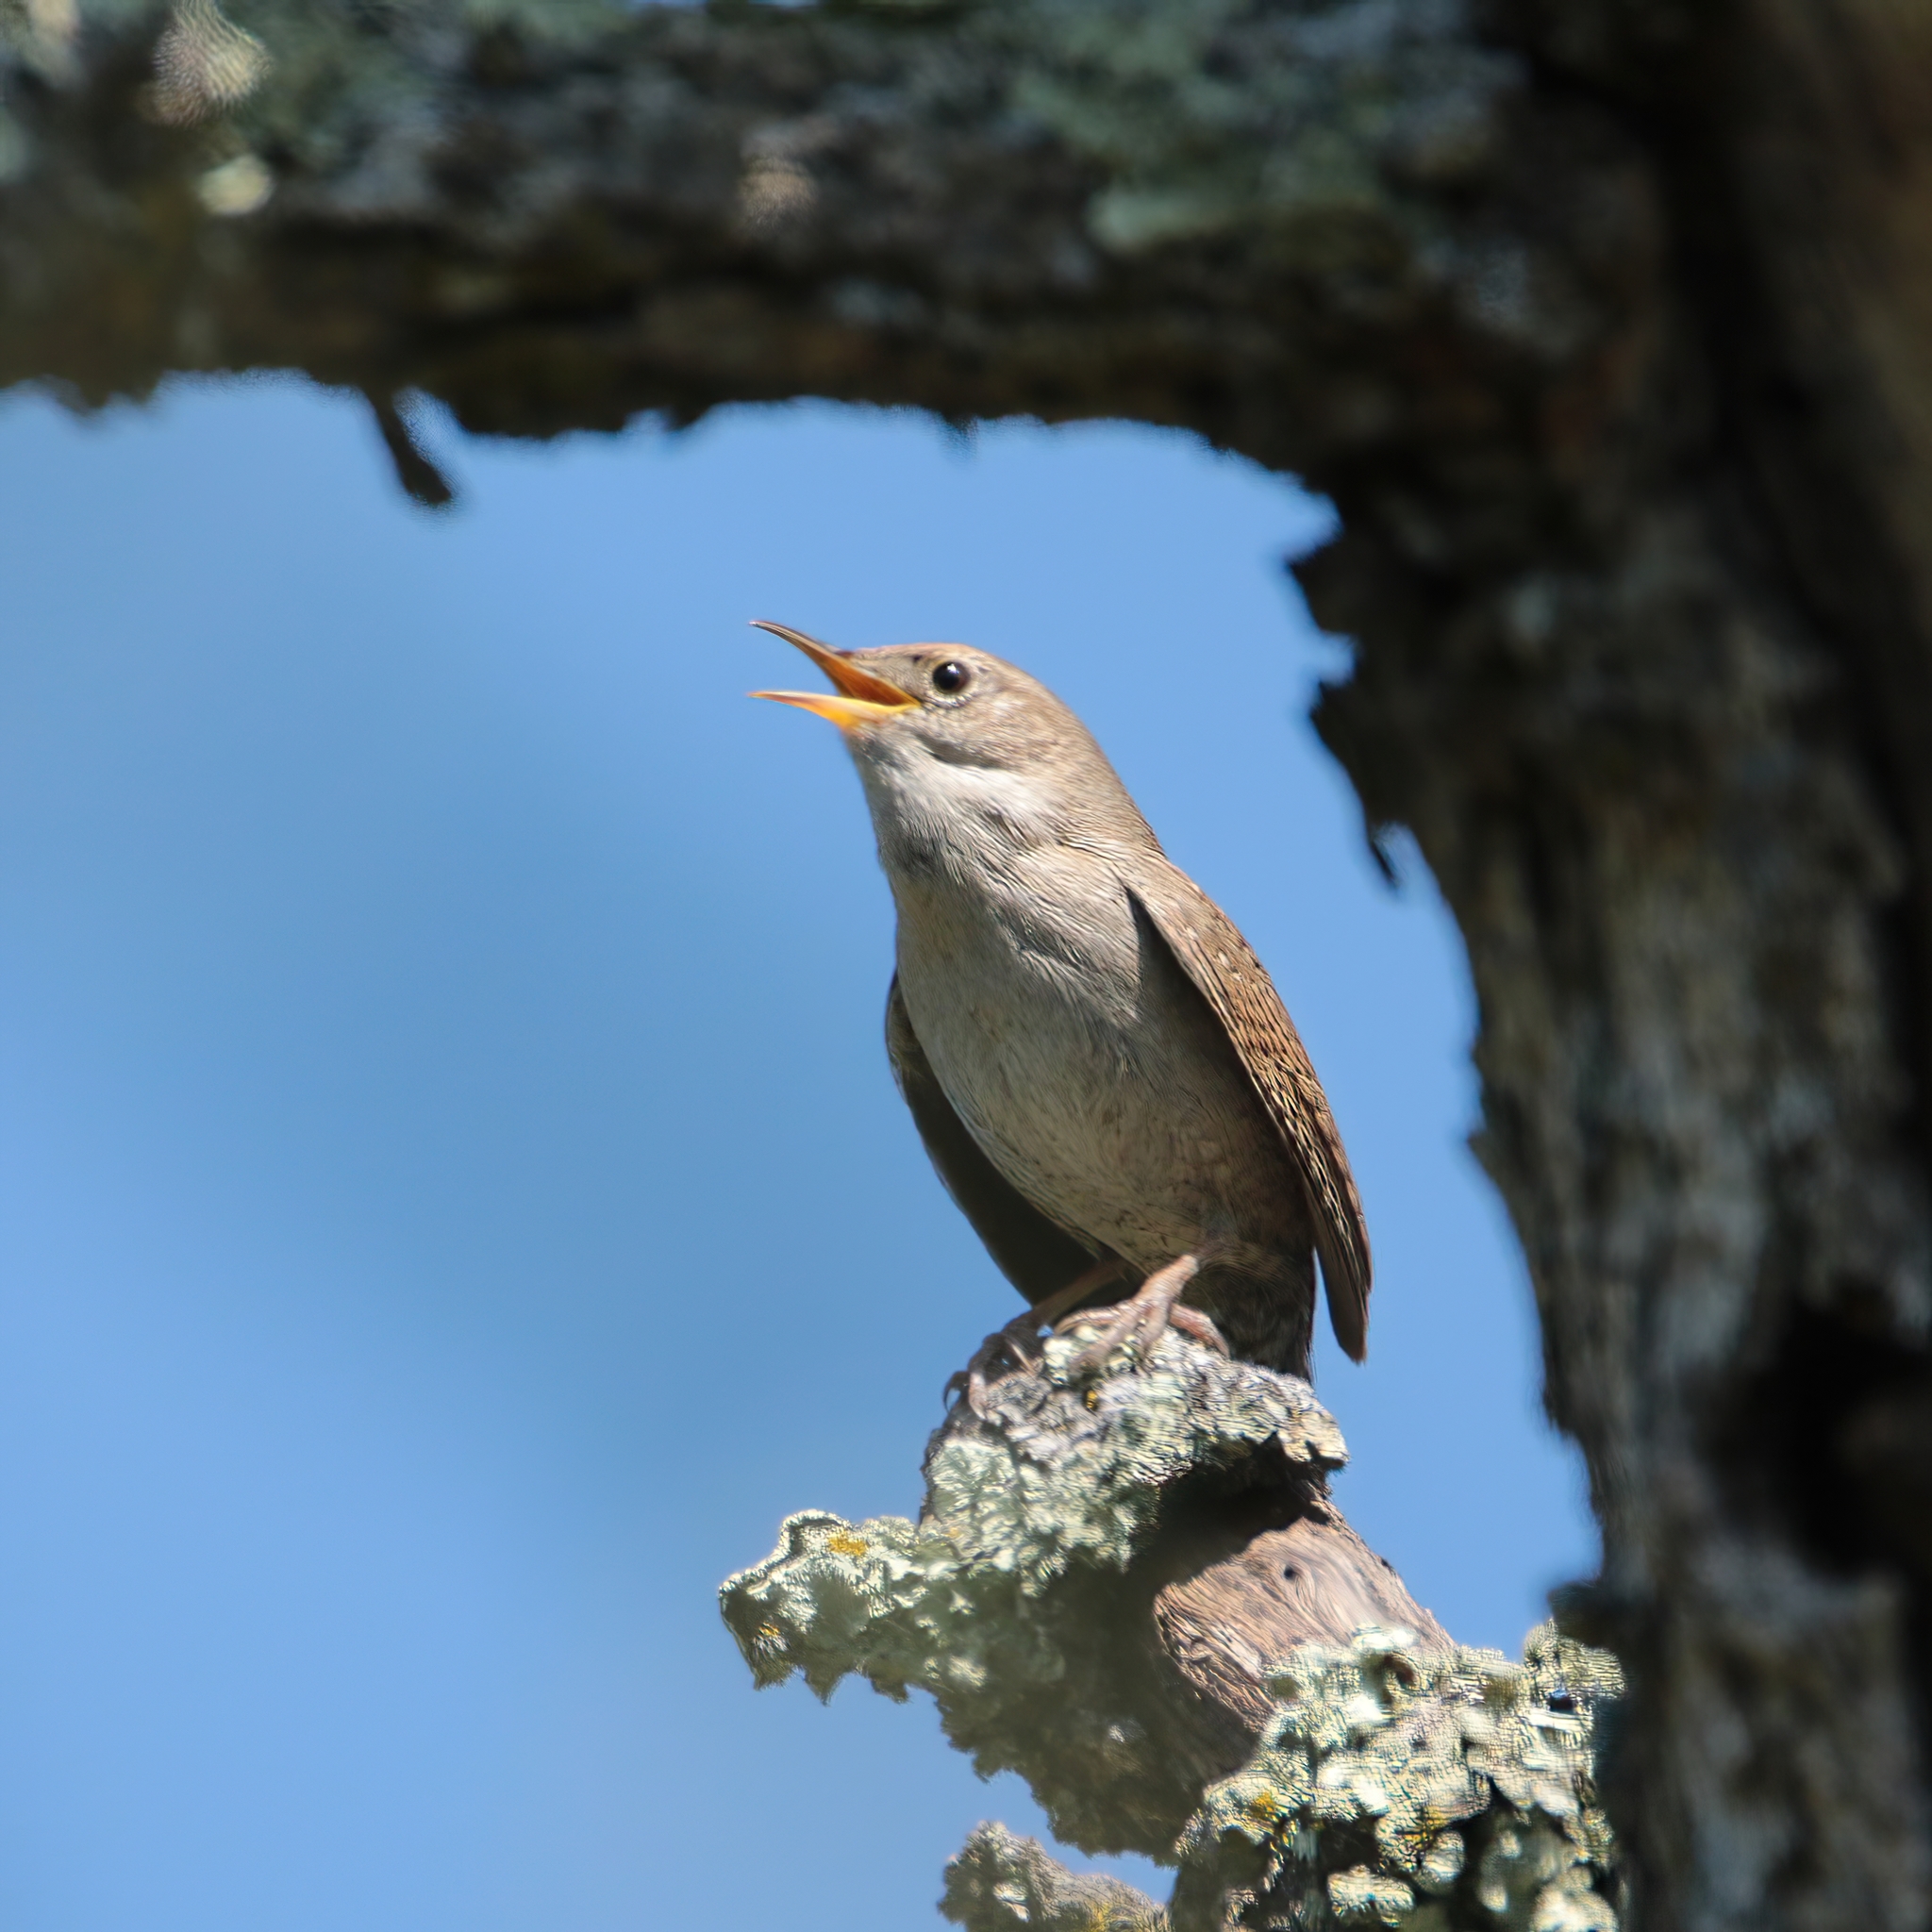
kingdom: Animalia
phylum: Chordata
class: Aves
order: Passeriformes
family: Troglodytidae
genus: Troglodytes
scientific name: Troglodytes aedon
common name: House wren
